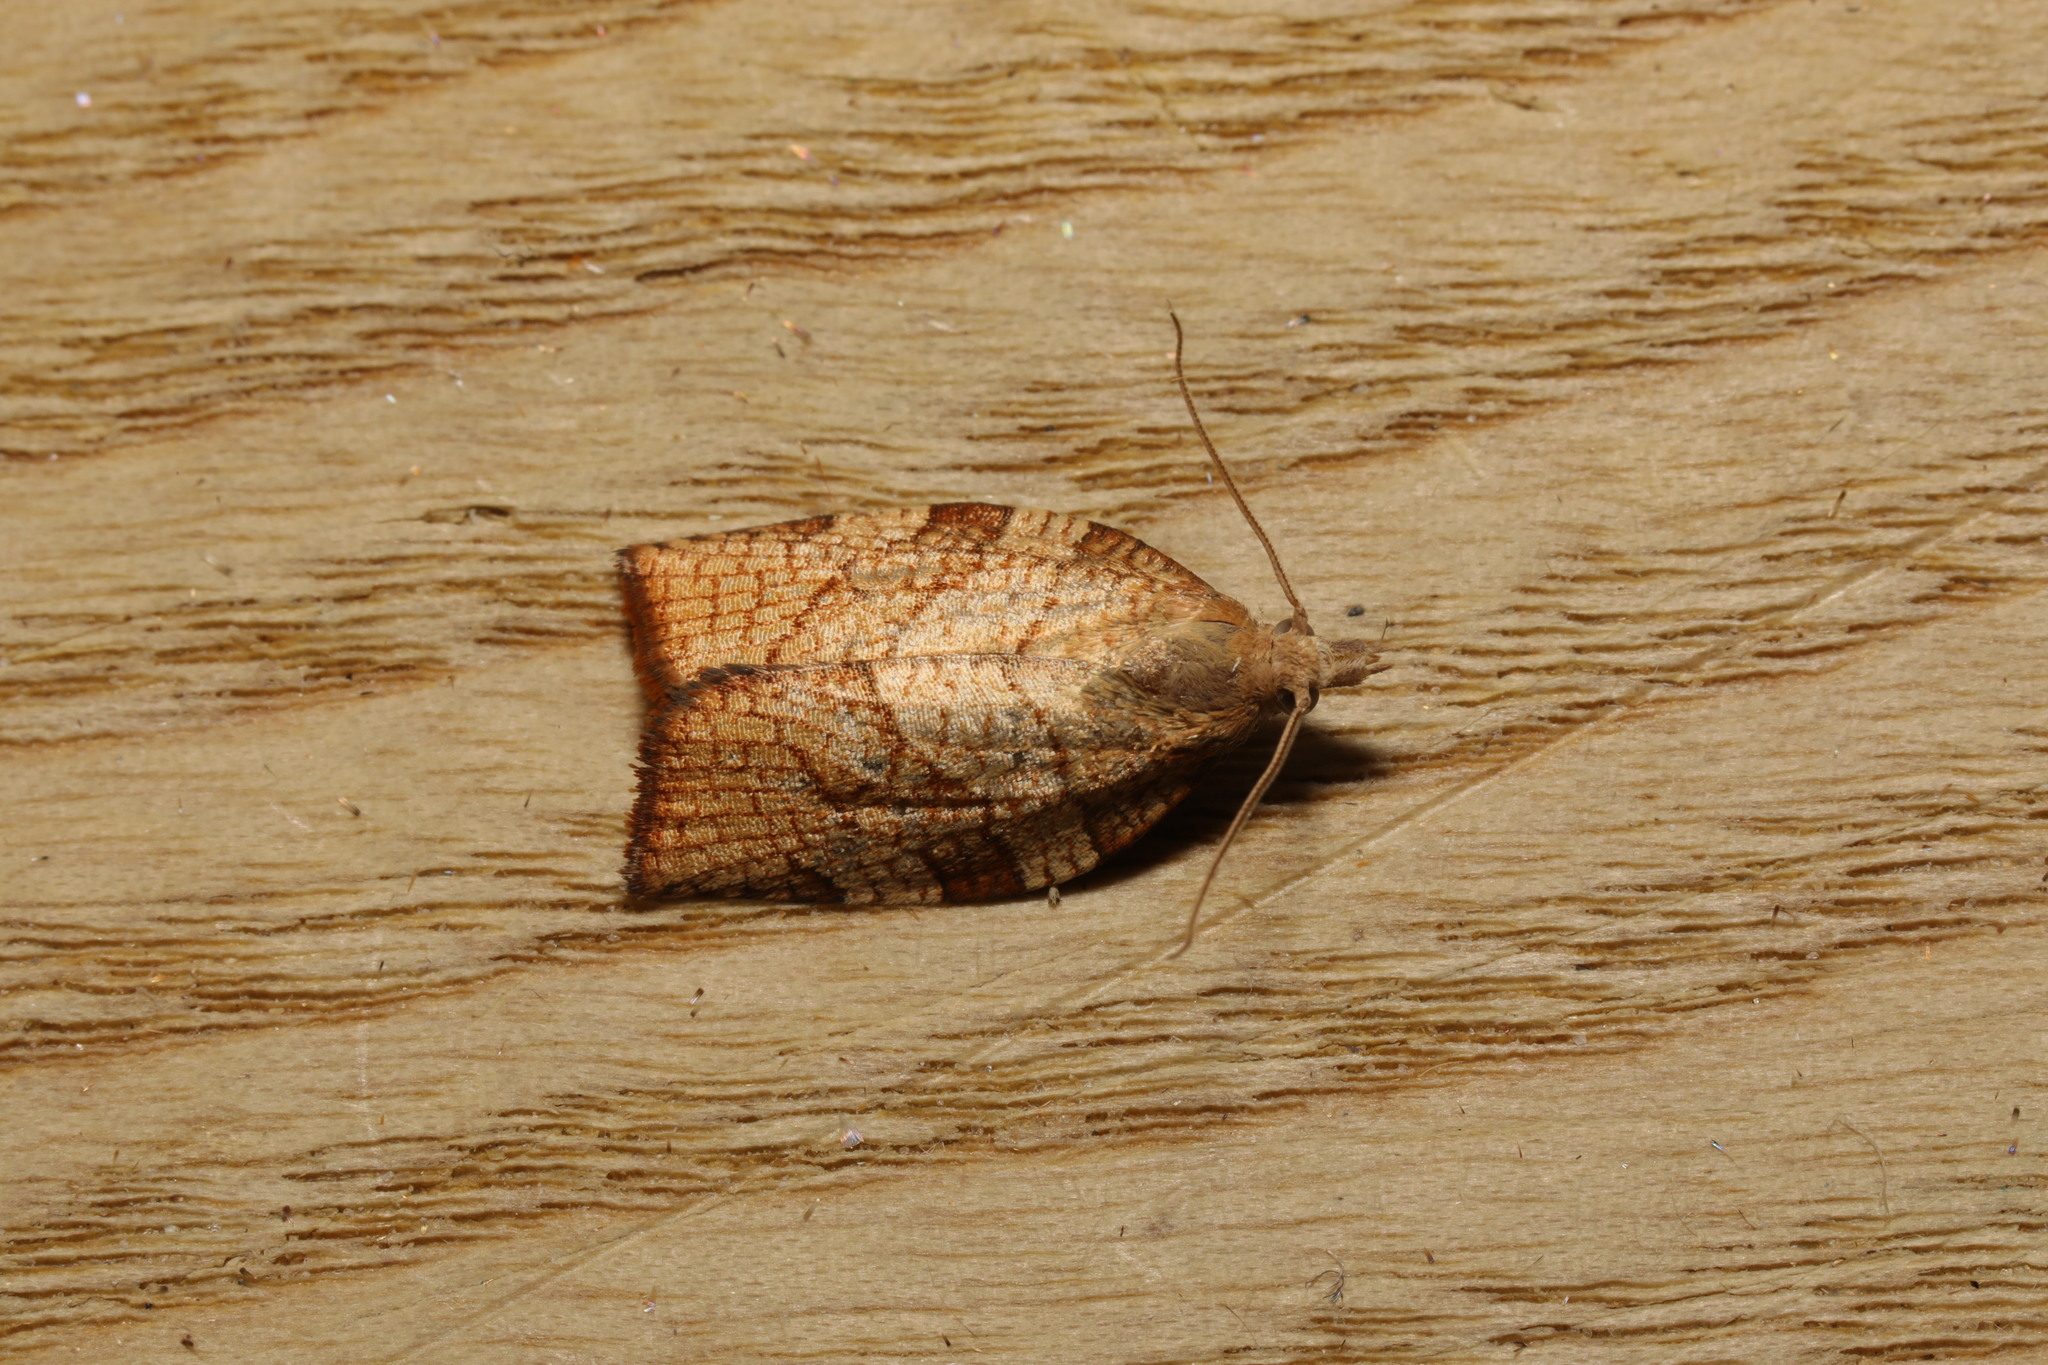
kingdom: Animalia
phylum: Arthropoda
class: Insecta
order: Lepidoptera
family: Tortricidae
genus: Pandemis
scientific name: Pandemis corylana
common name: Chequered fruit-tree tortrix
